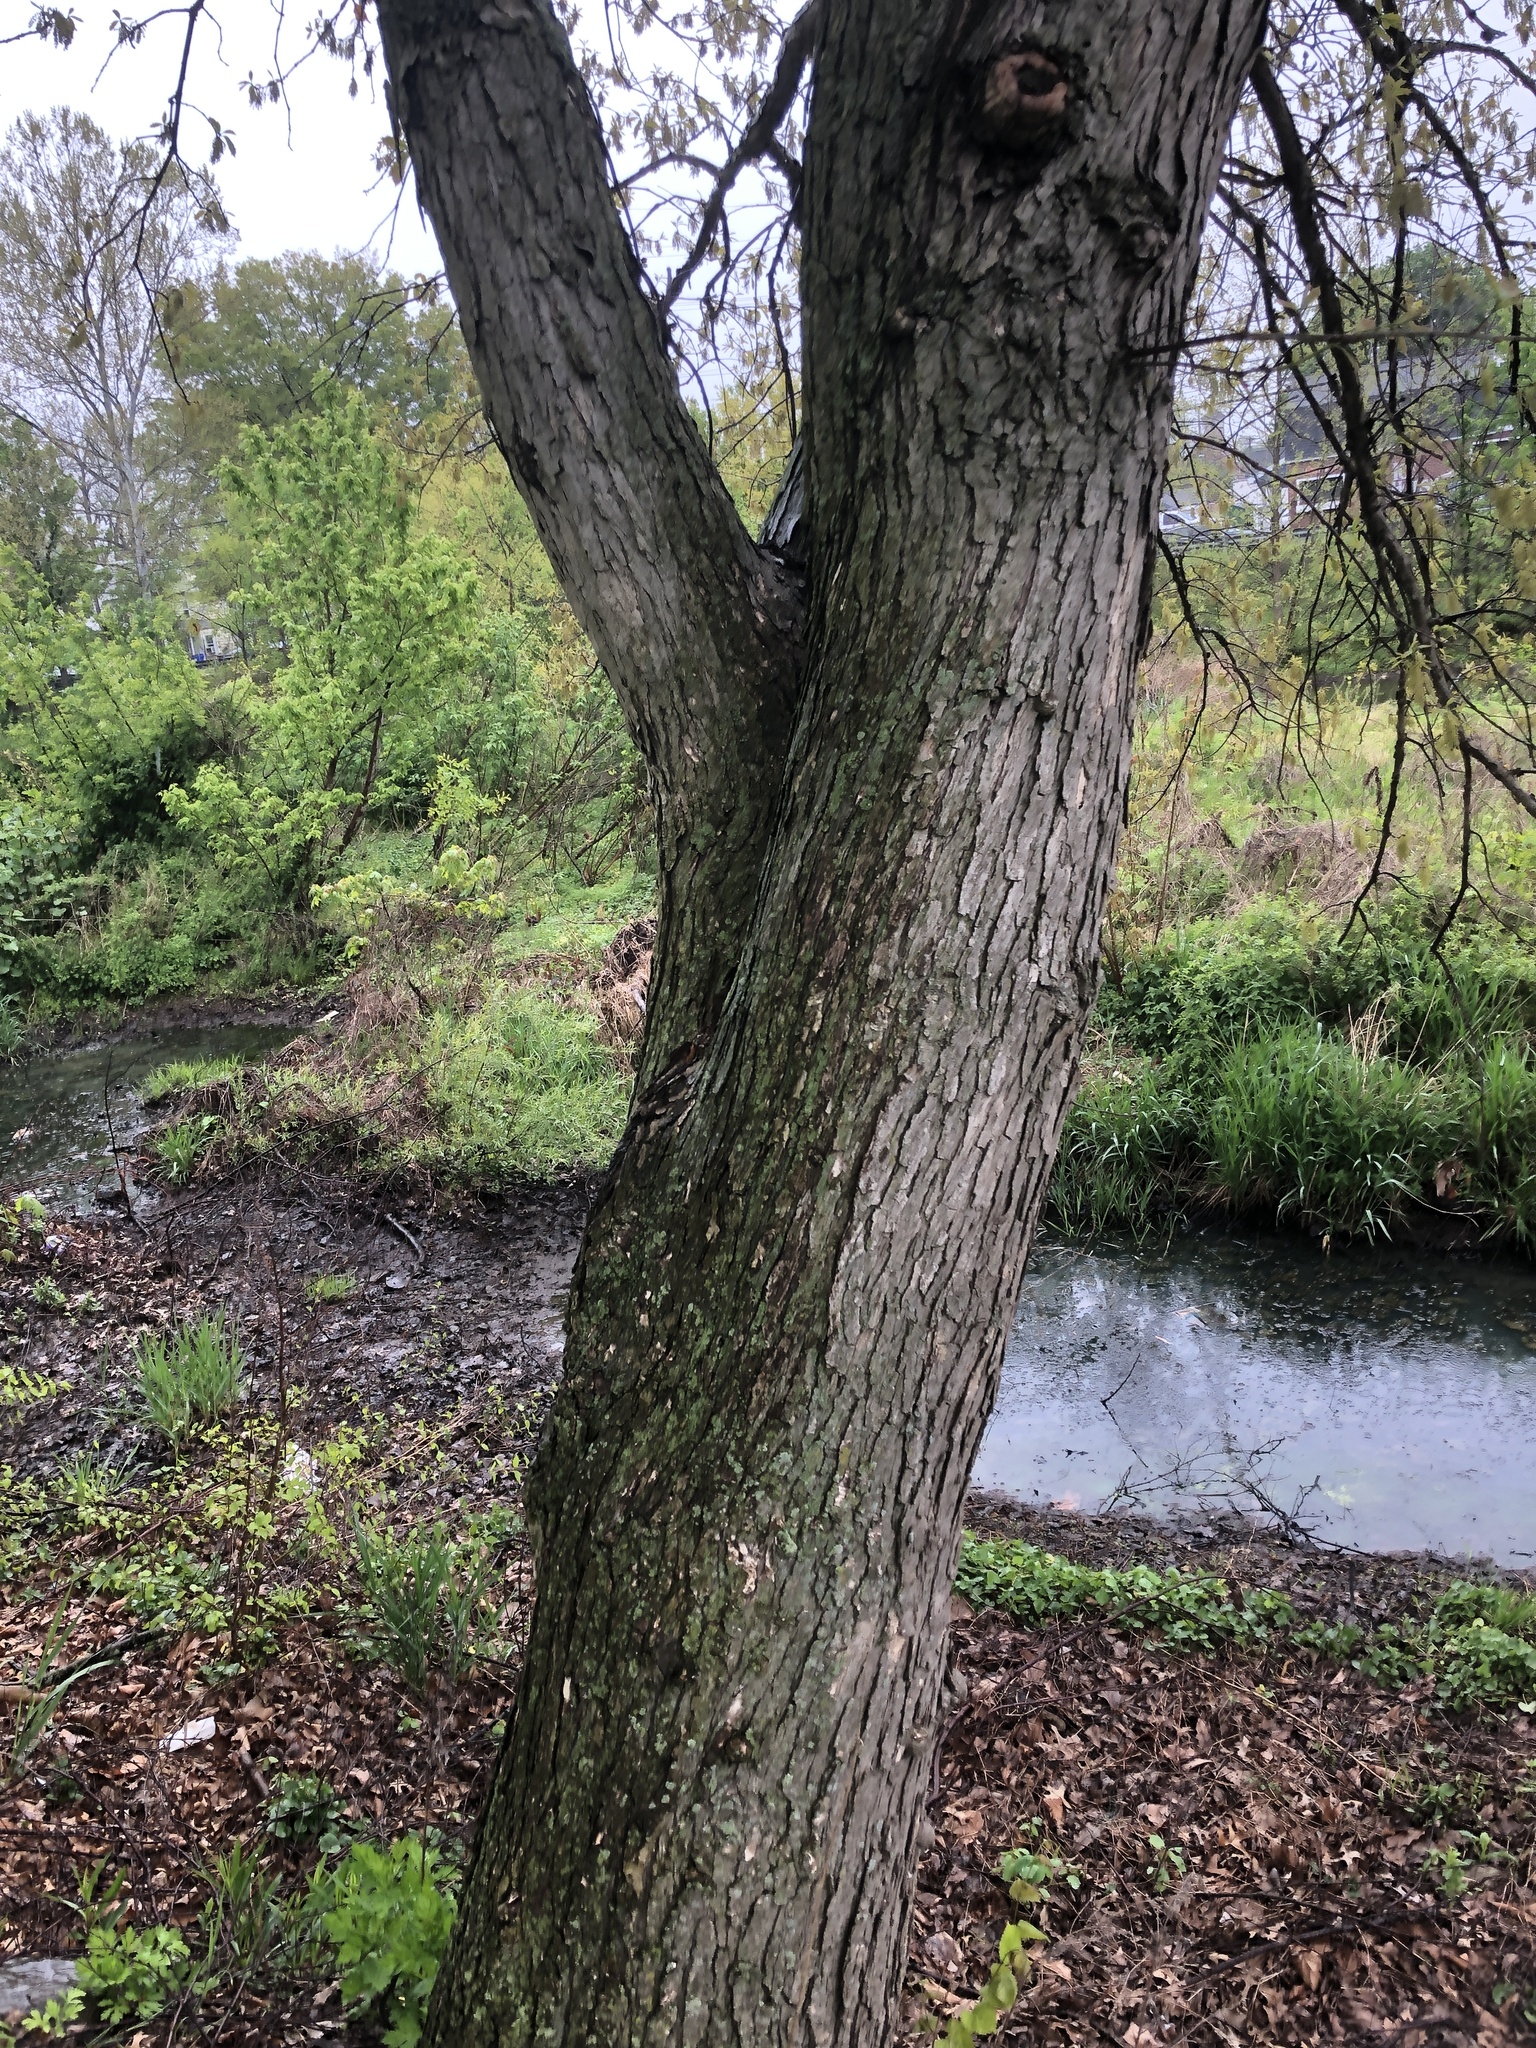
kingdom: Plantae
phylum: Tracheophyta
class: Magnoliopsida
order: Fagales
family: Fagaceae
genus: Quercus
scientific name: Quercus bicolor
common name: Swamp white oak
